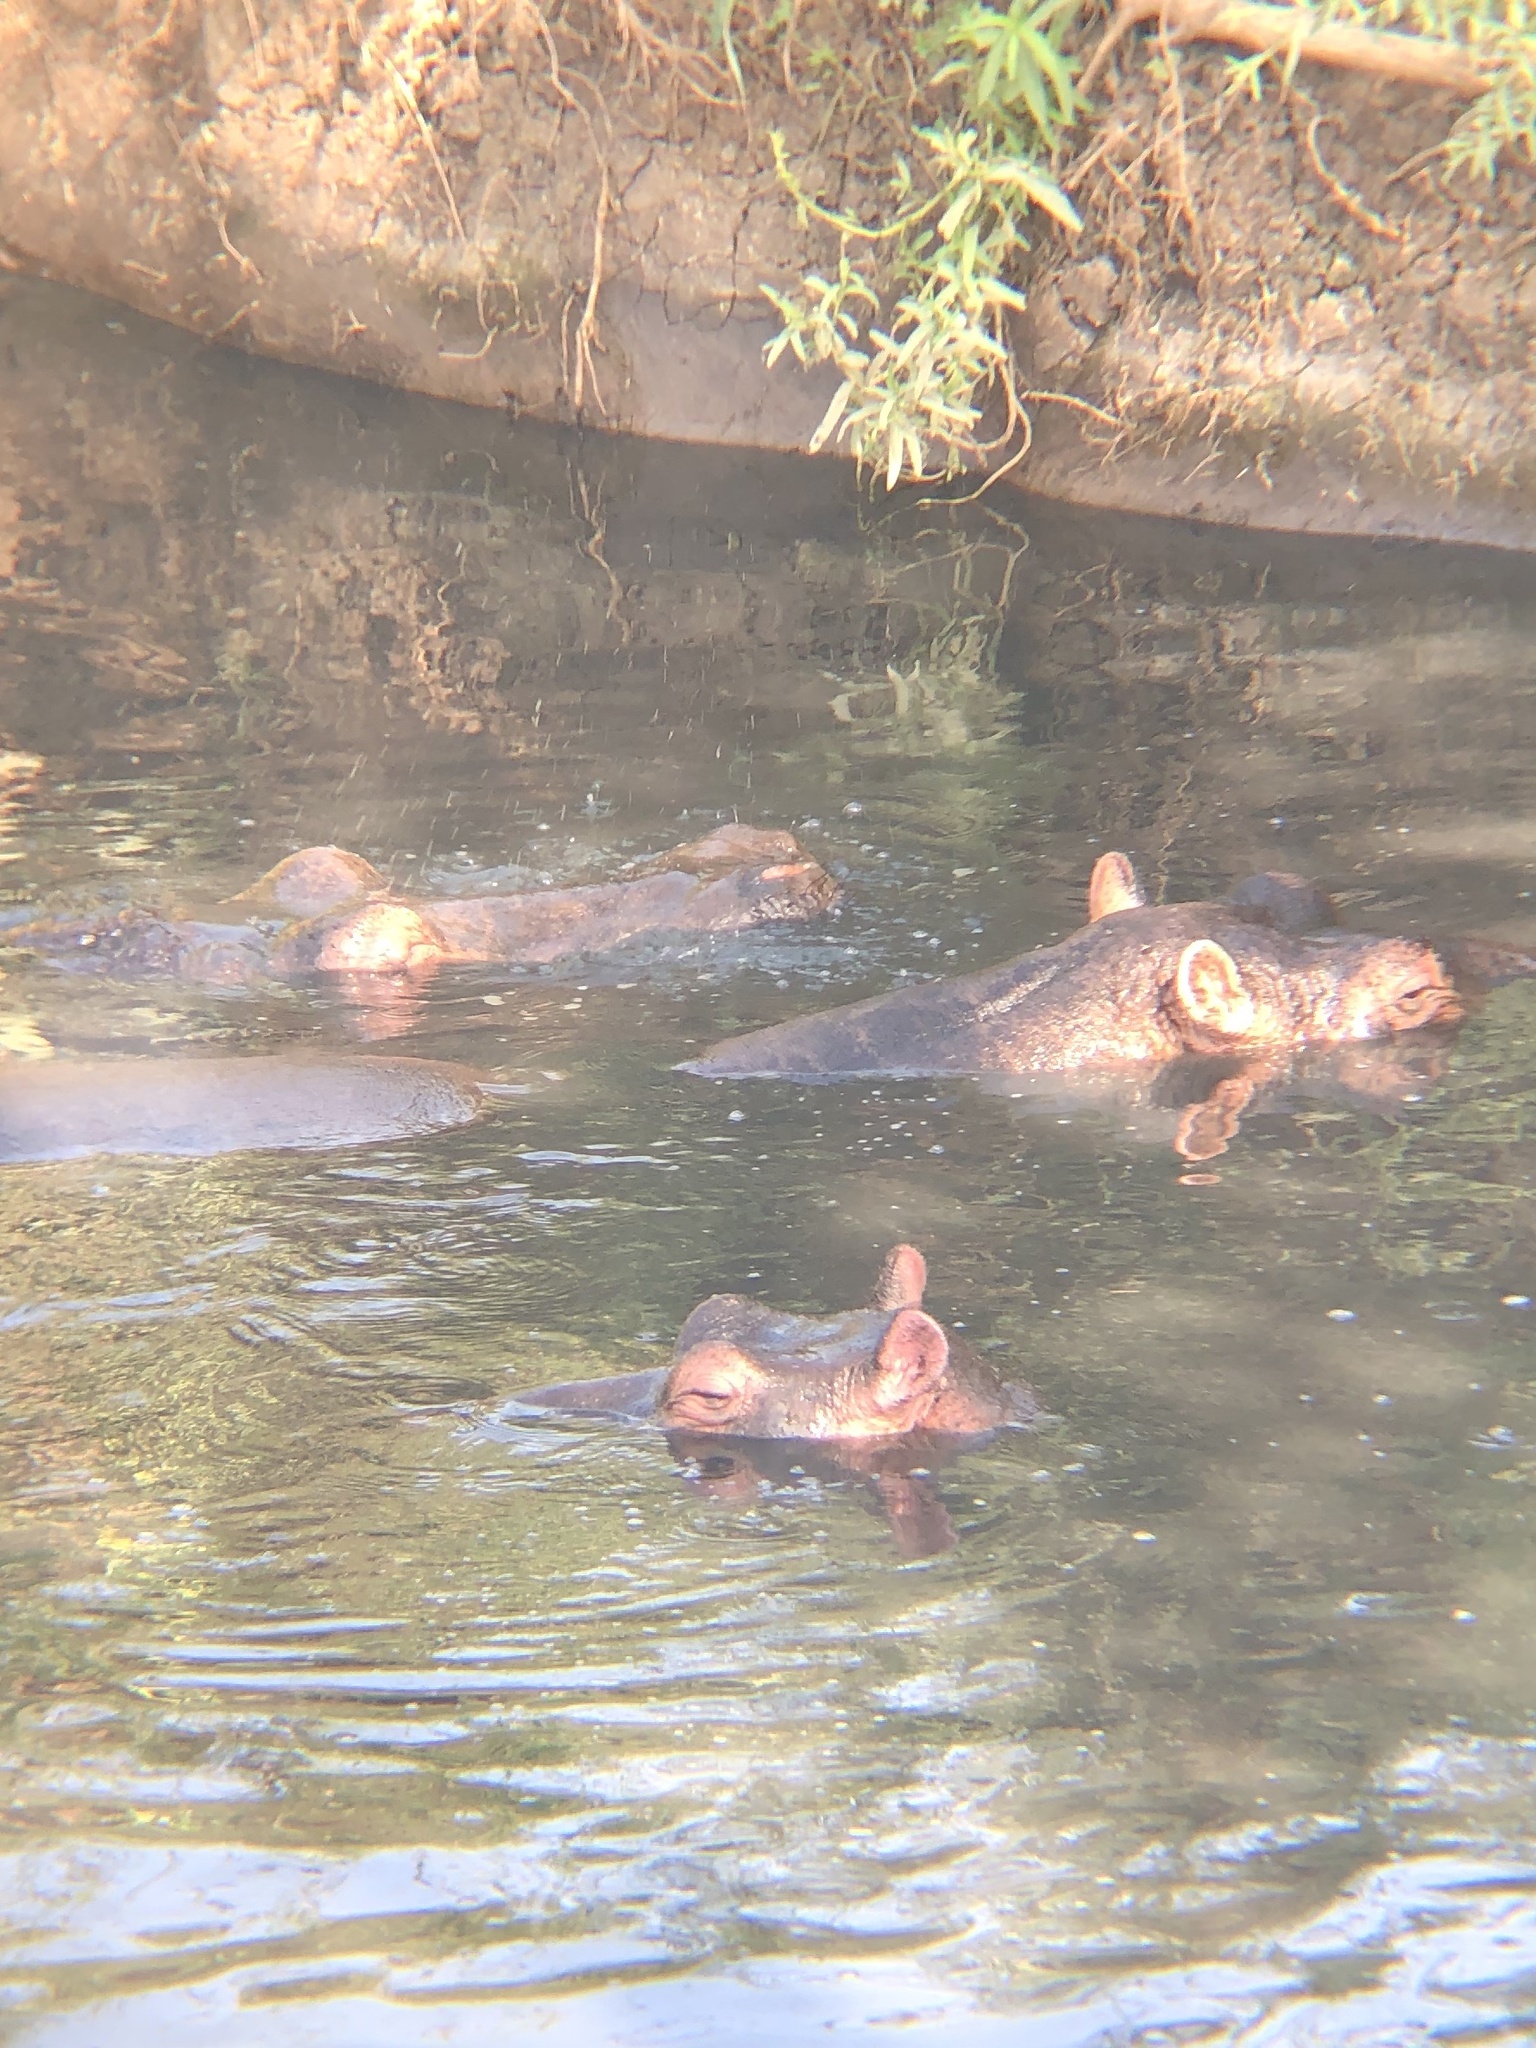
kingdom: Animalia
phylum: Chordata
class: Mammalia
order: Artiodactyla
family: Hippopotamidae
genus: Hippopotamus
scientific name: Hippopotamus amphibius
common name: Common hippopotamus
